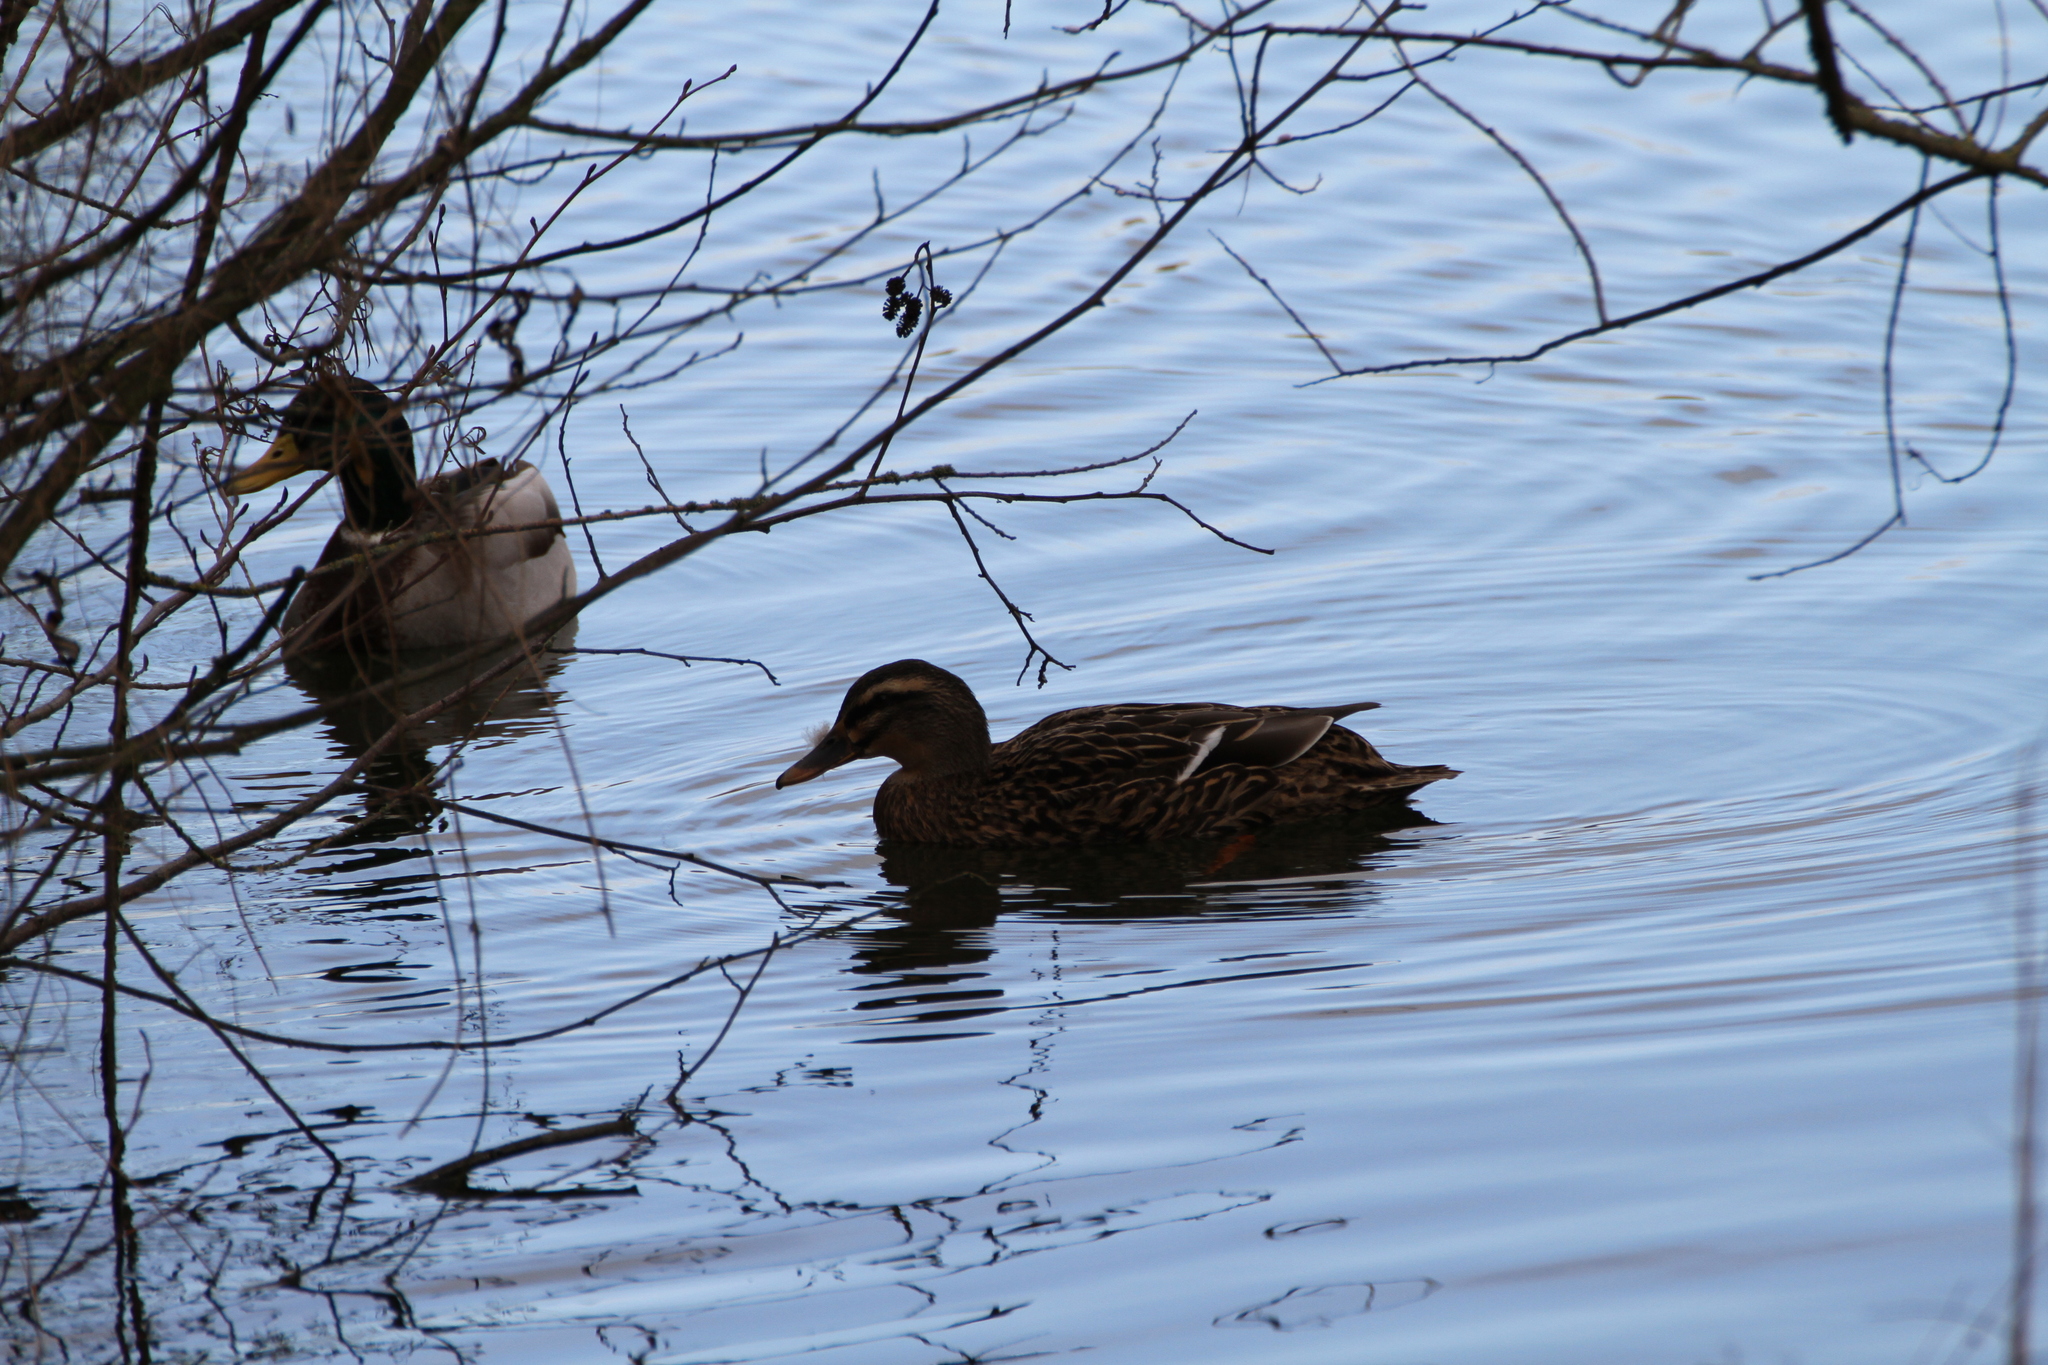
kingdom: Animalia
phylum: Chordata
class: Aves
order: Anseriformes
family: Anatidae
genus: Anas
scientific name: Anas platyrhynchos
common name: Mallard
